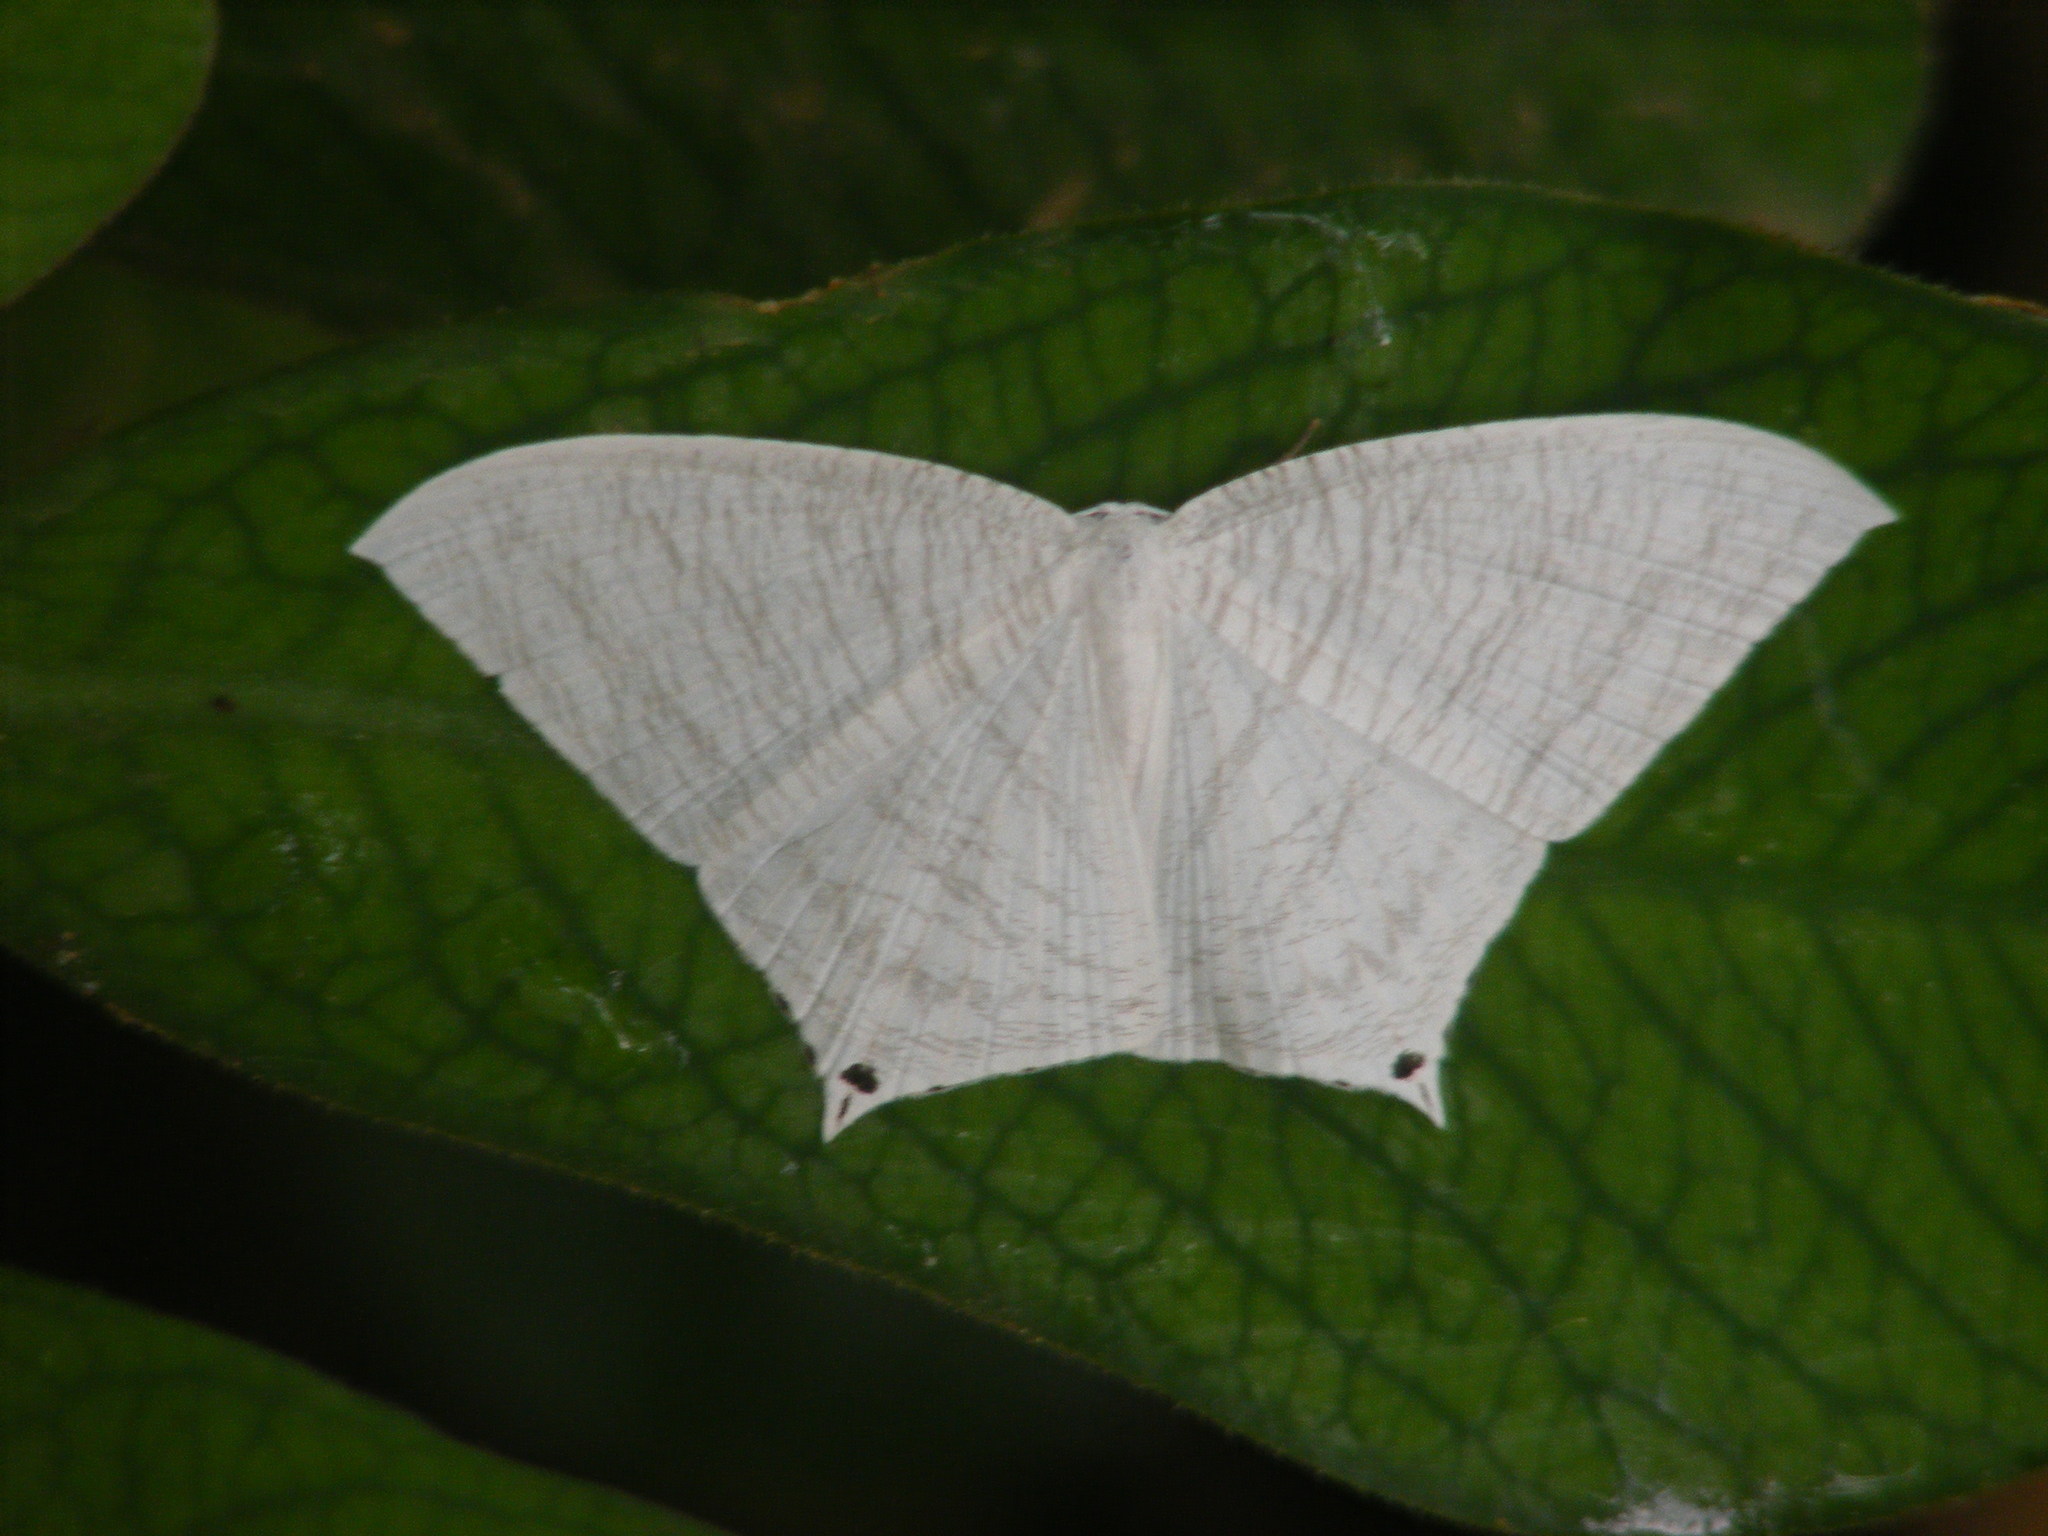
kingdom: Animalia
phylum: Arthropoda
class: Insecta
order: Lepidoptera
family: Uraniidae
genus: Micronia
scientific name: Micronia aculeata
